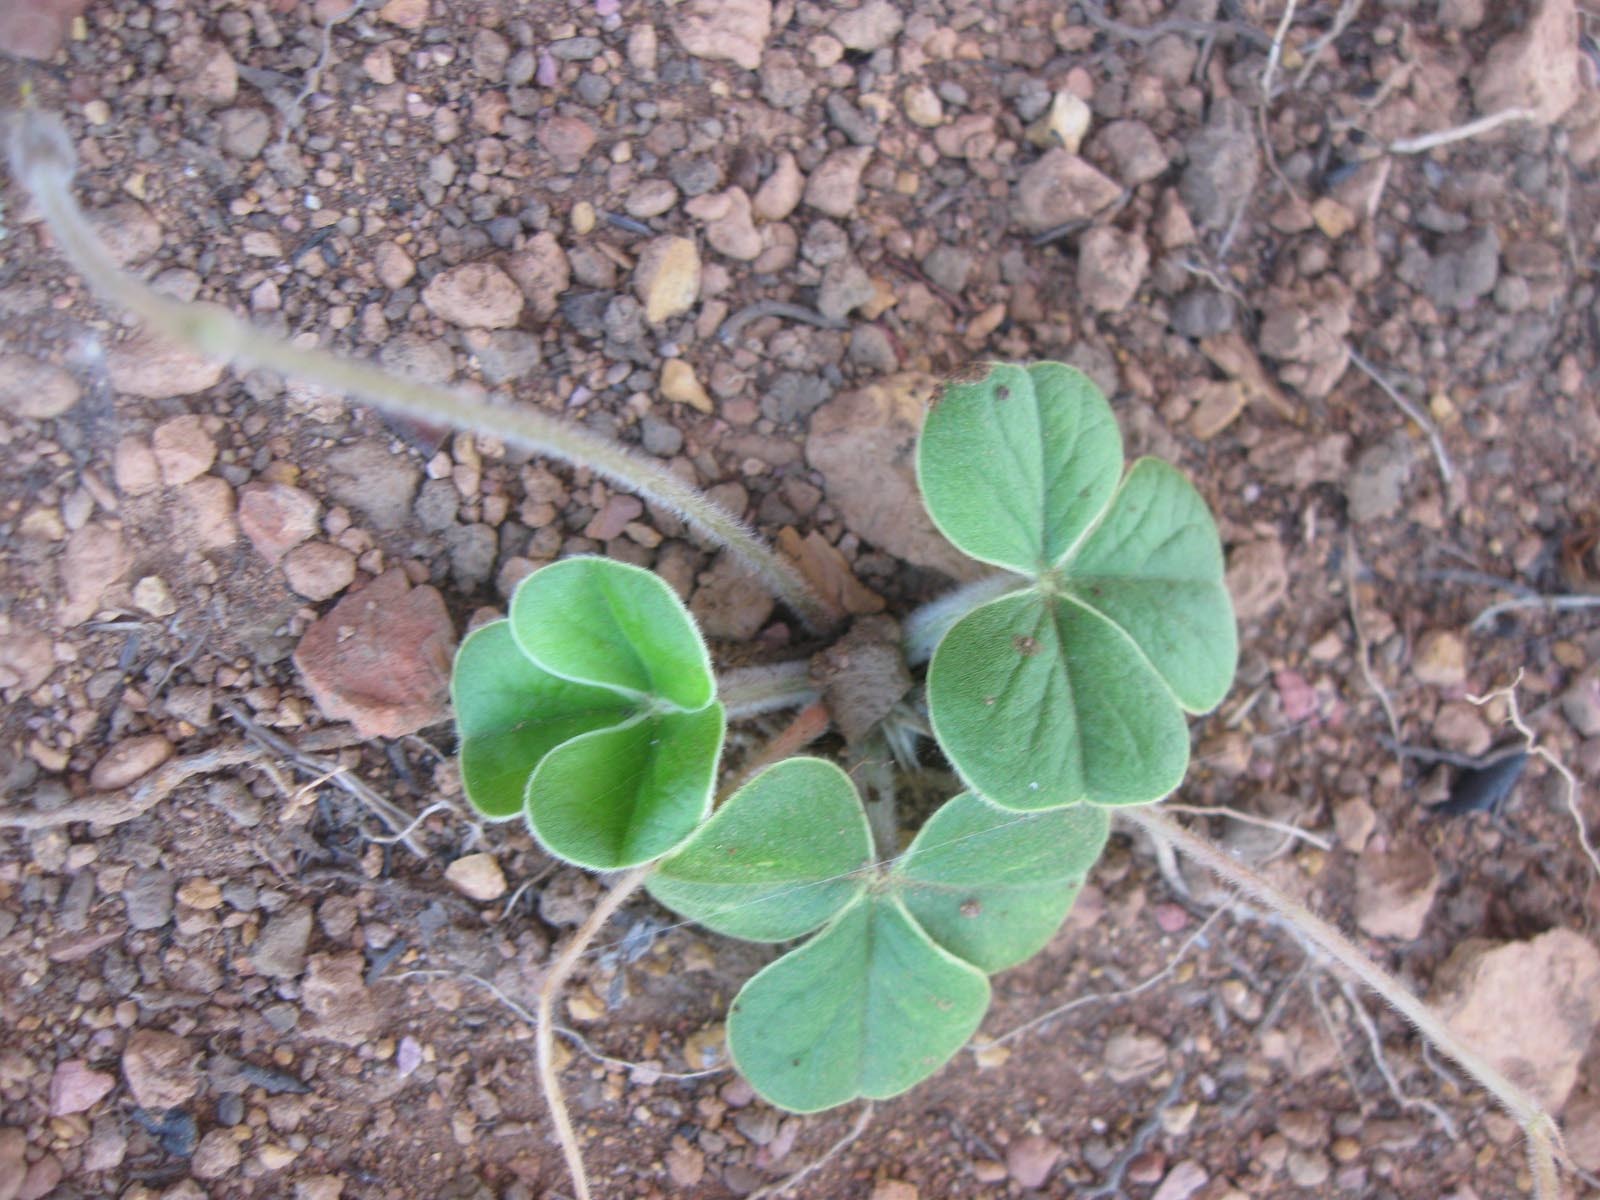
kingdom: Plantae
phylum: Tracheophyta
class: Magnoliopsida
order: Oxalidales
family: Oxalidaceae
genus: Oxalis
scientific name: Oxalis truncatula
